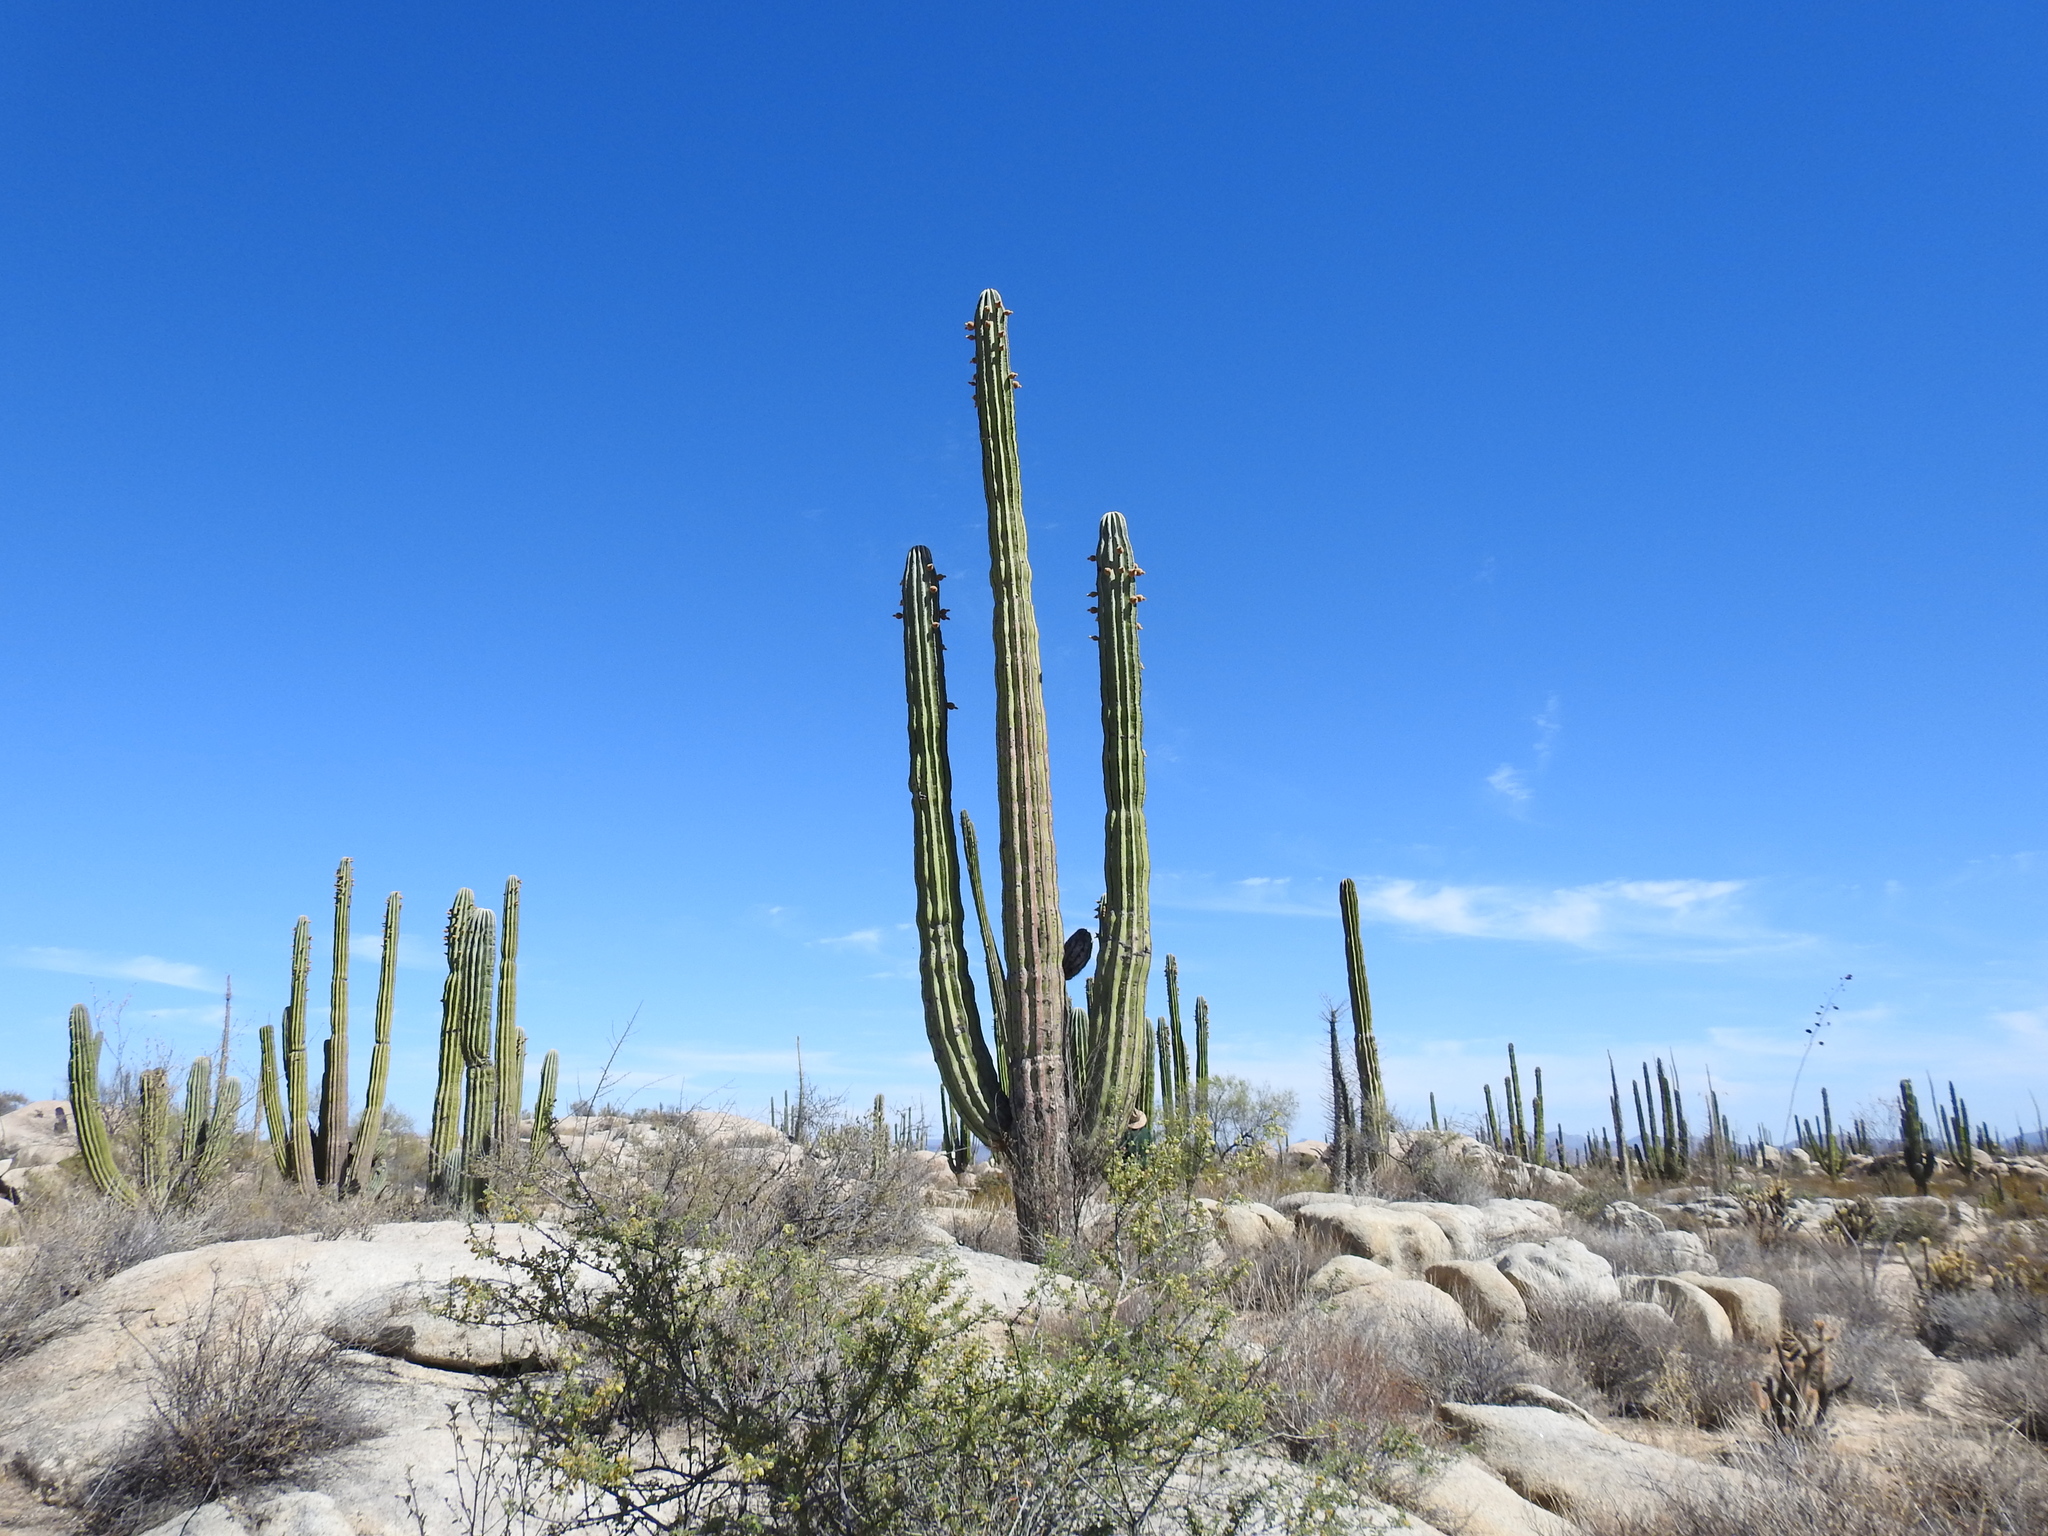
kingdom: Plantae
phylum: Tracheophyta
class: Magnoliopsida
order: Caryophyllales
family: Cactaceae
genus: Pachycereus
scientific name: Pachycereus pringlei
